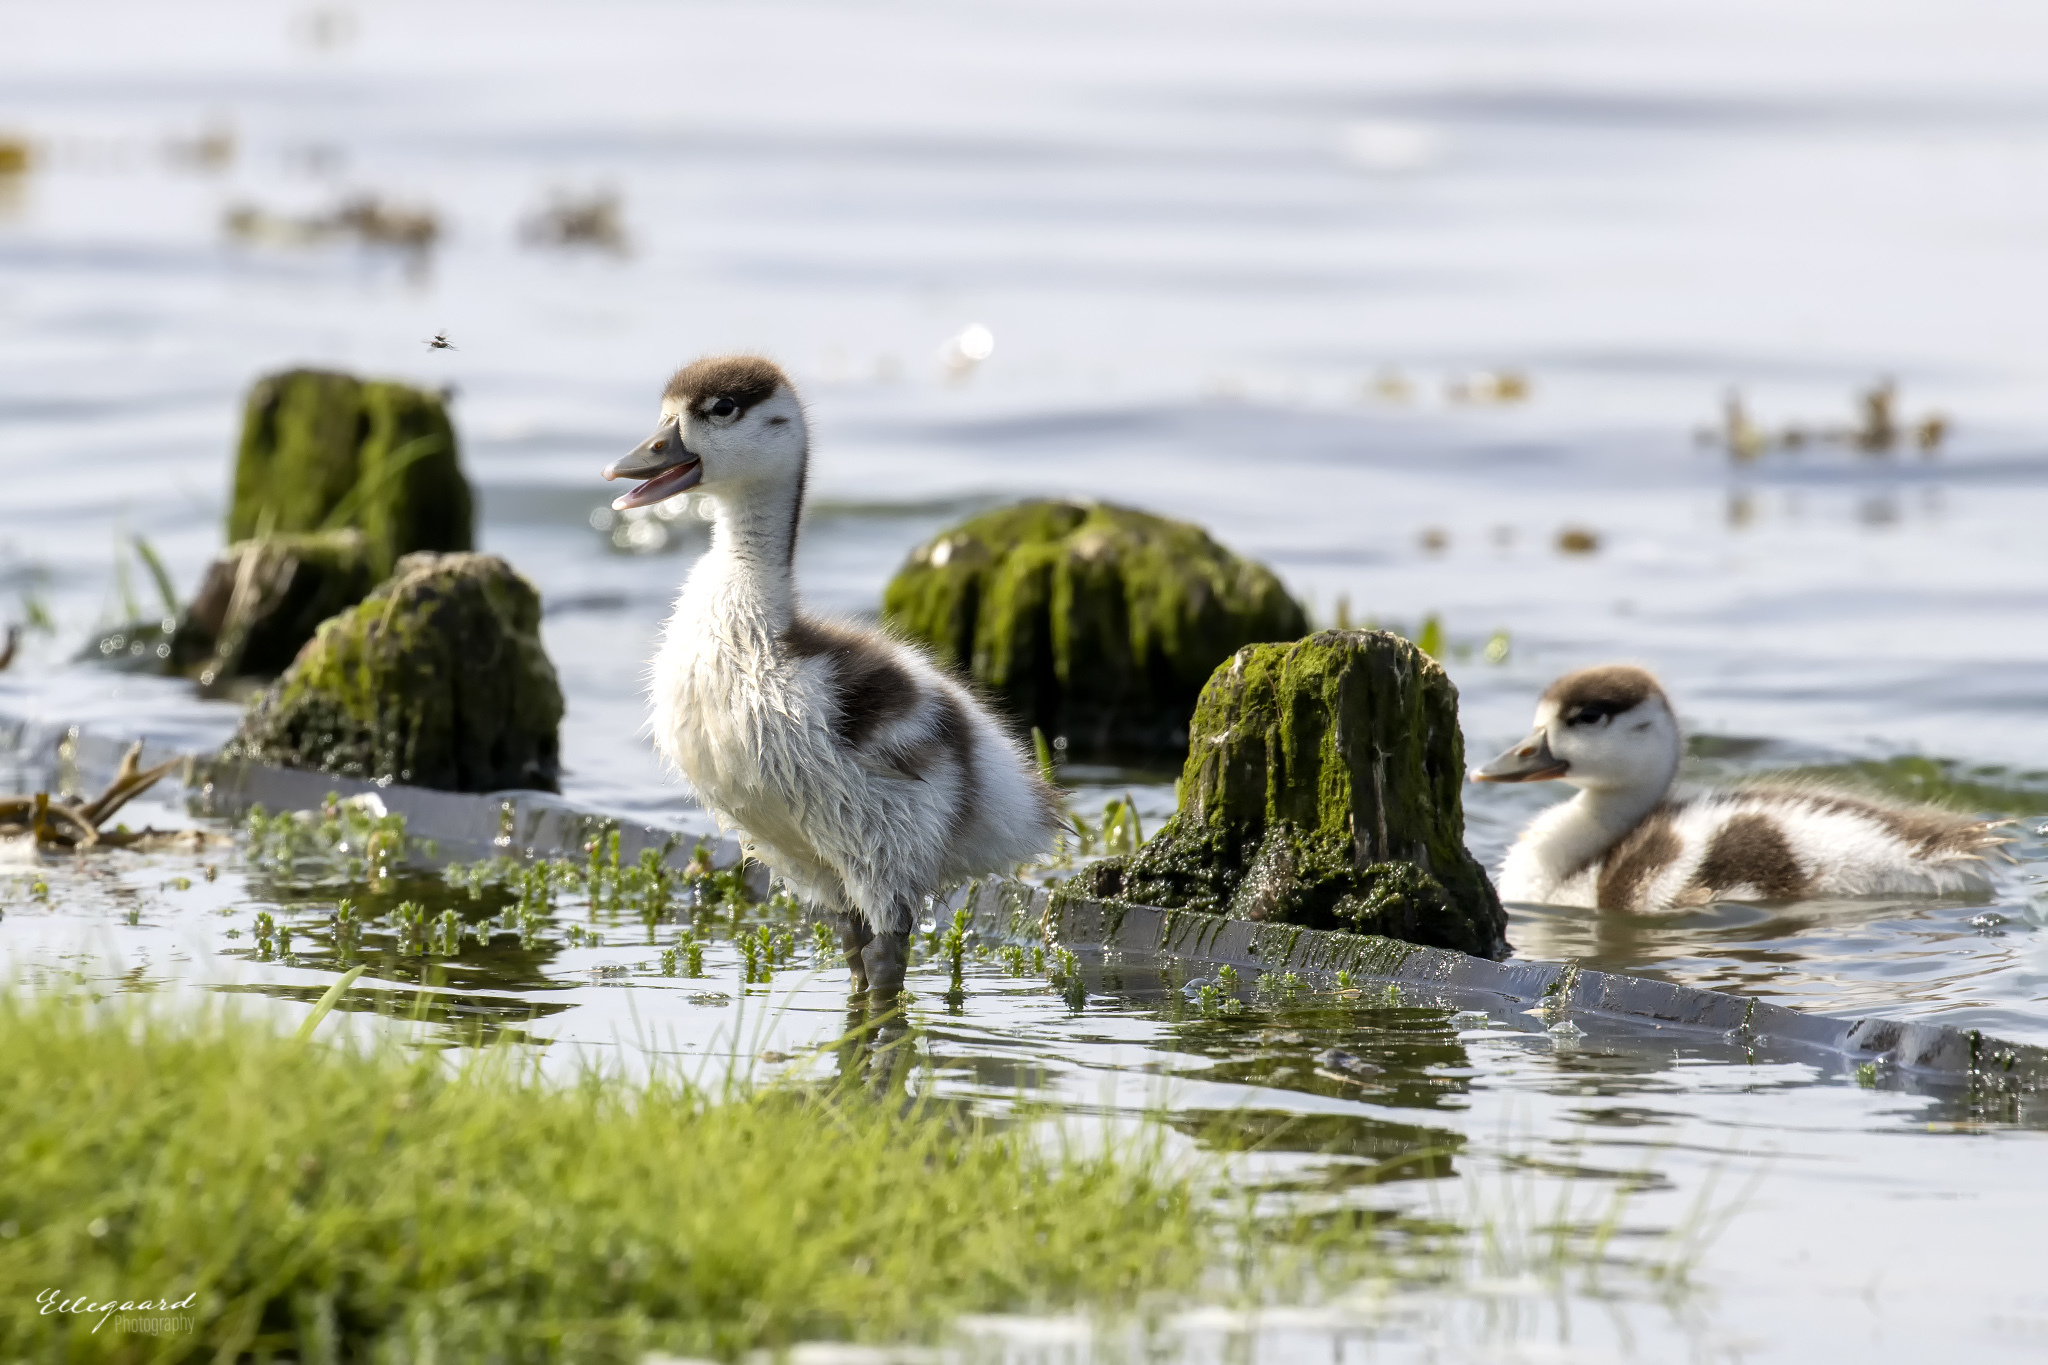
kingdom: Animalia
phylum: Chordata
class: Aves
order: Anseriformes
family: Anatidae
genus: Tadorna
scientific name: Tadorna tadorna
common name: Common shelduck
